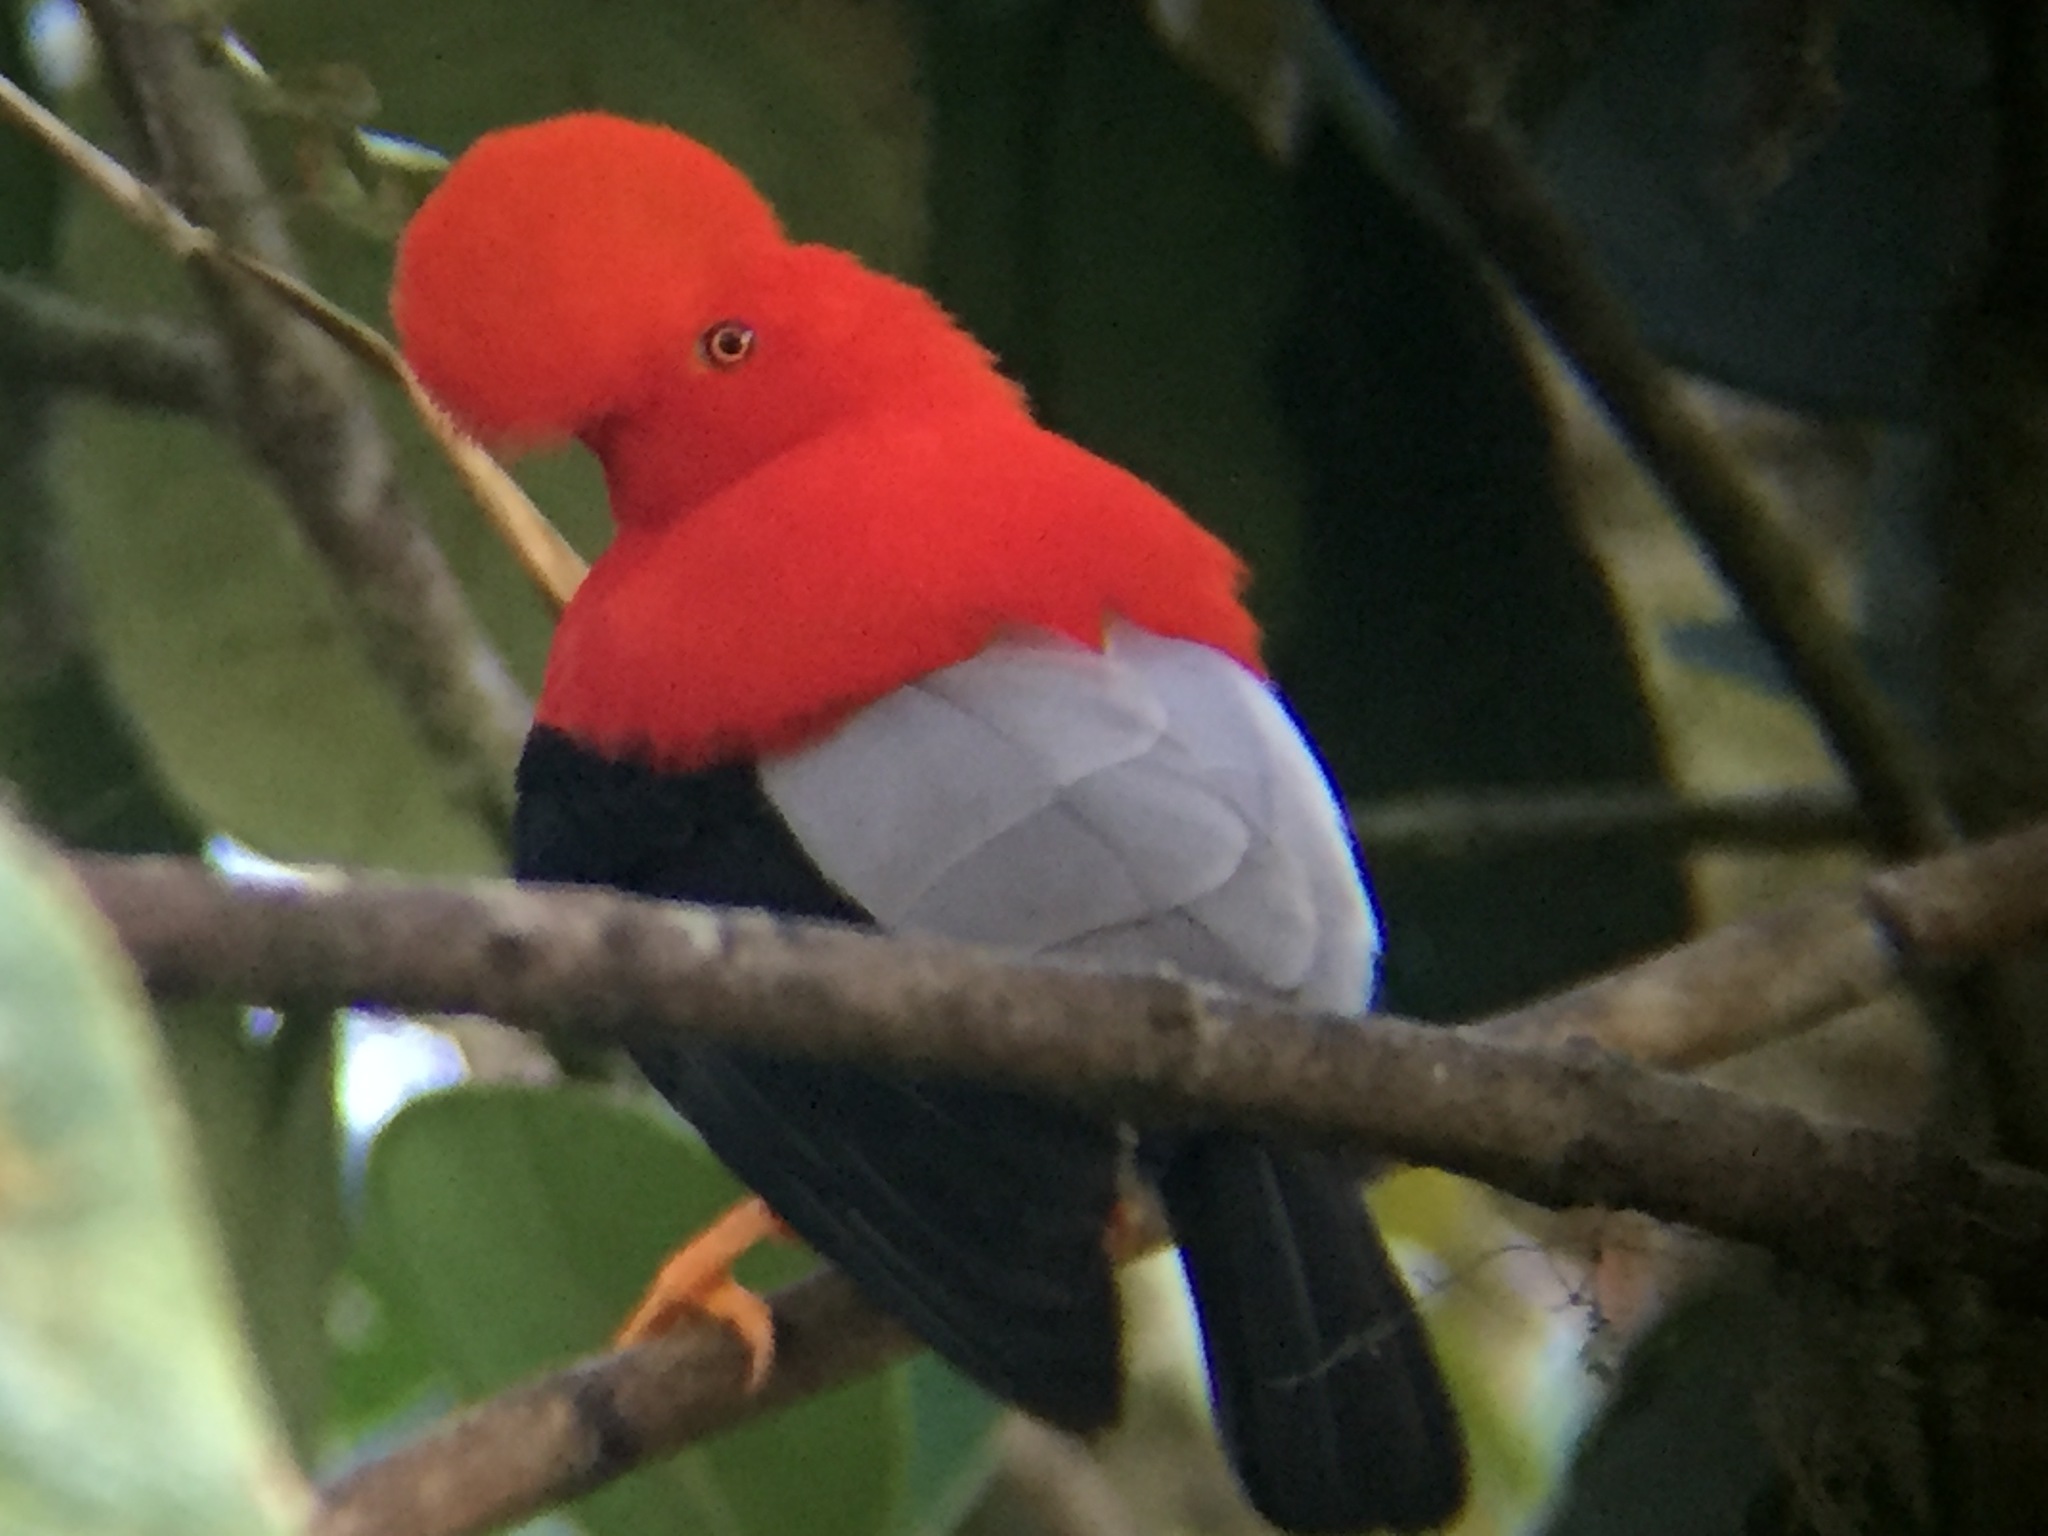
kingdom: Animalia
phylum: Chordata
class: Aves
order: Passeriformes
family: Cotingidae
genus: Rupicola
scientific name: Rupicola peruvianus
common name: Andean cock-of-the-rock
